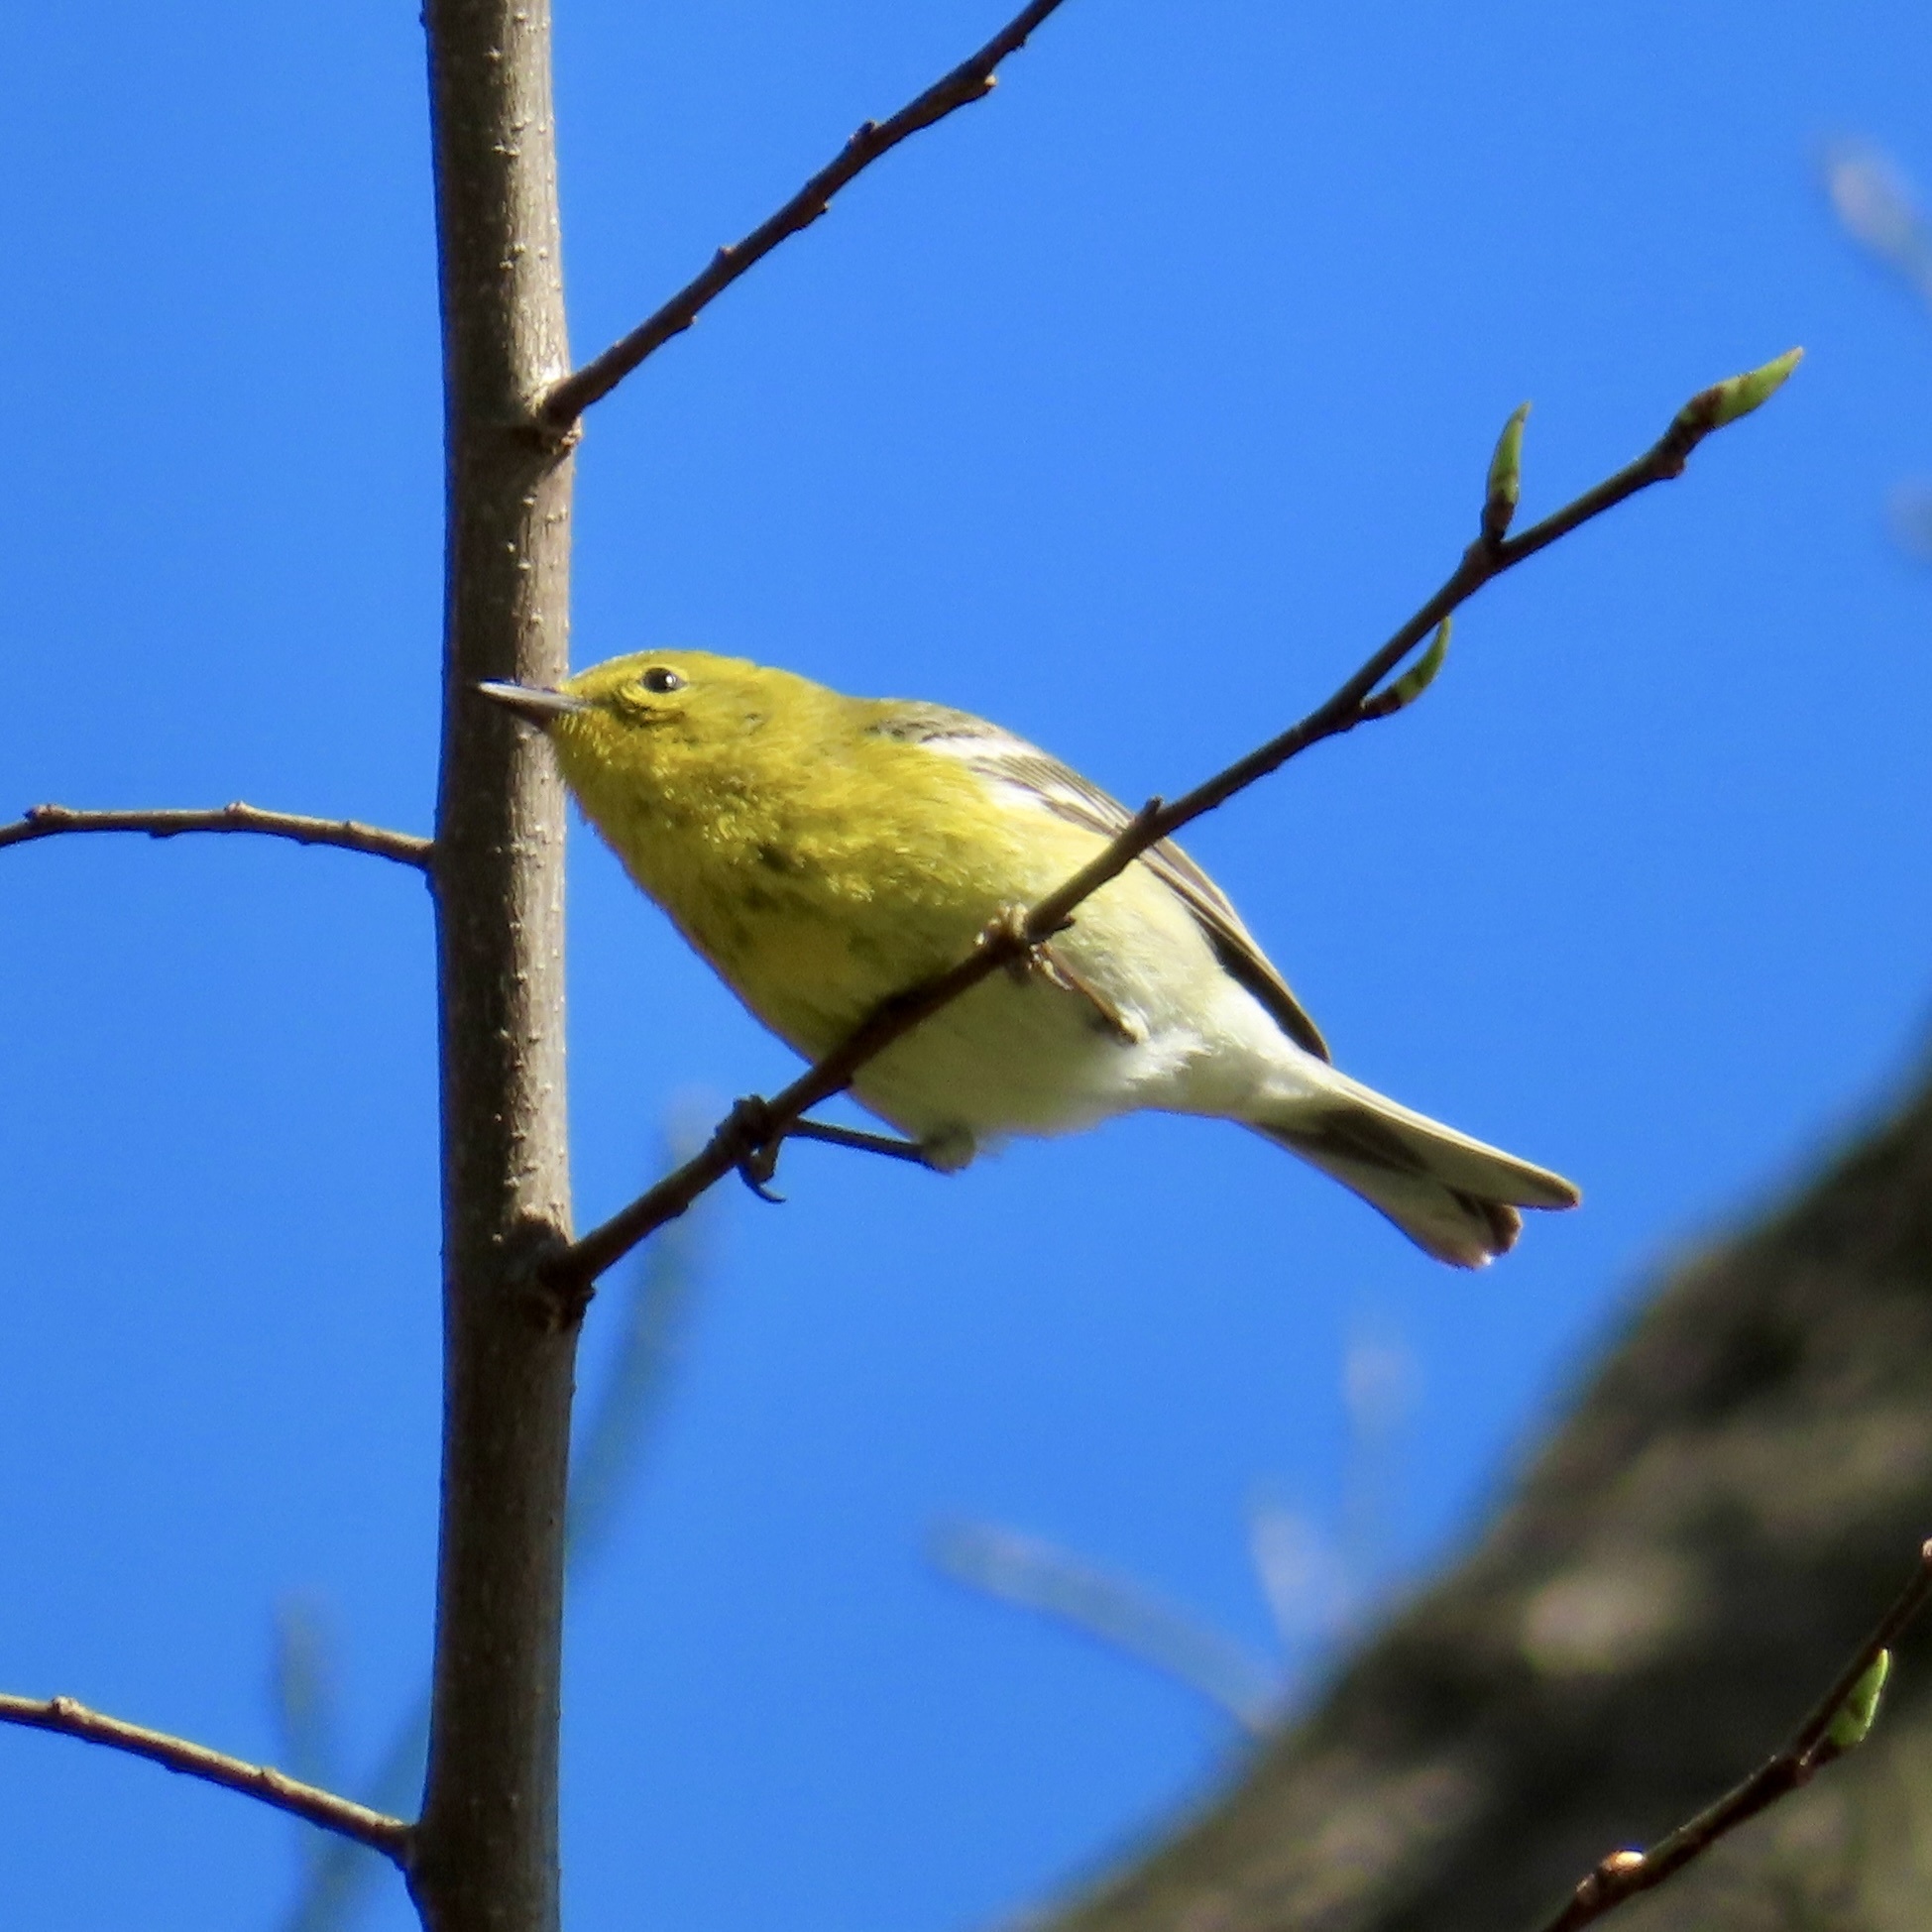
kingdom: Animalia
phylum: Chordata
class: Aves
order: Passeriformes
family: Parulidae
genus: Setophaga
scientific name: Setophaga pinus
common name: Pine warbler
